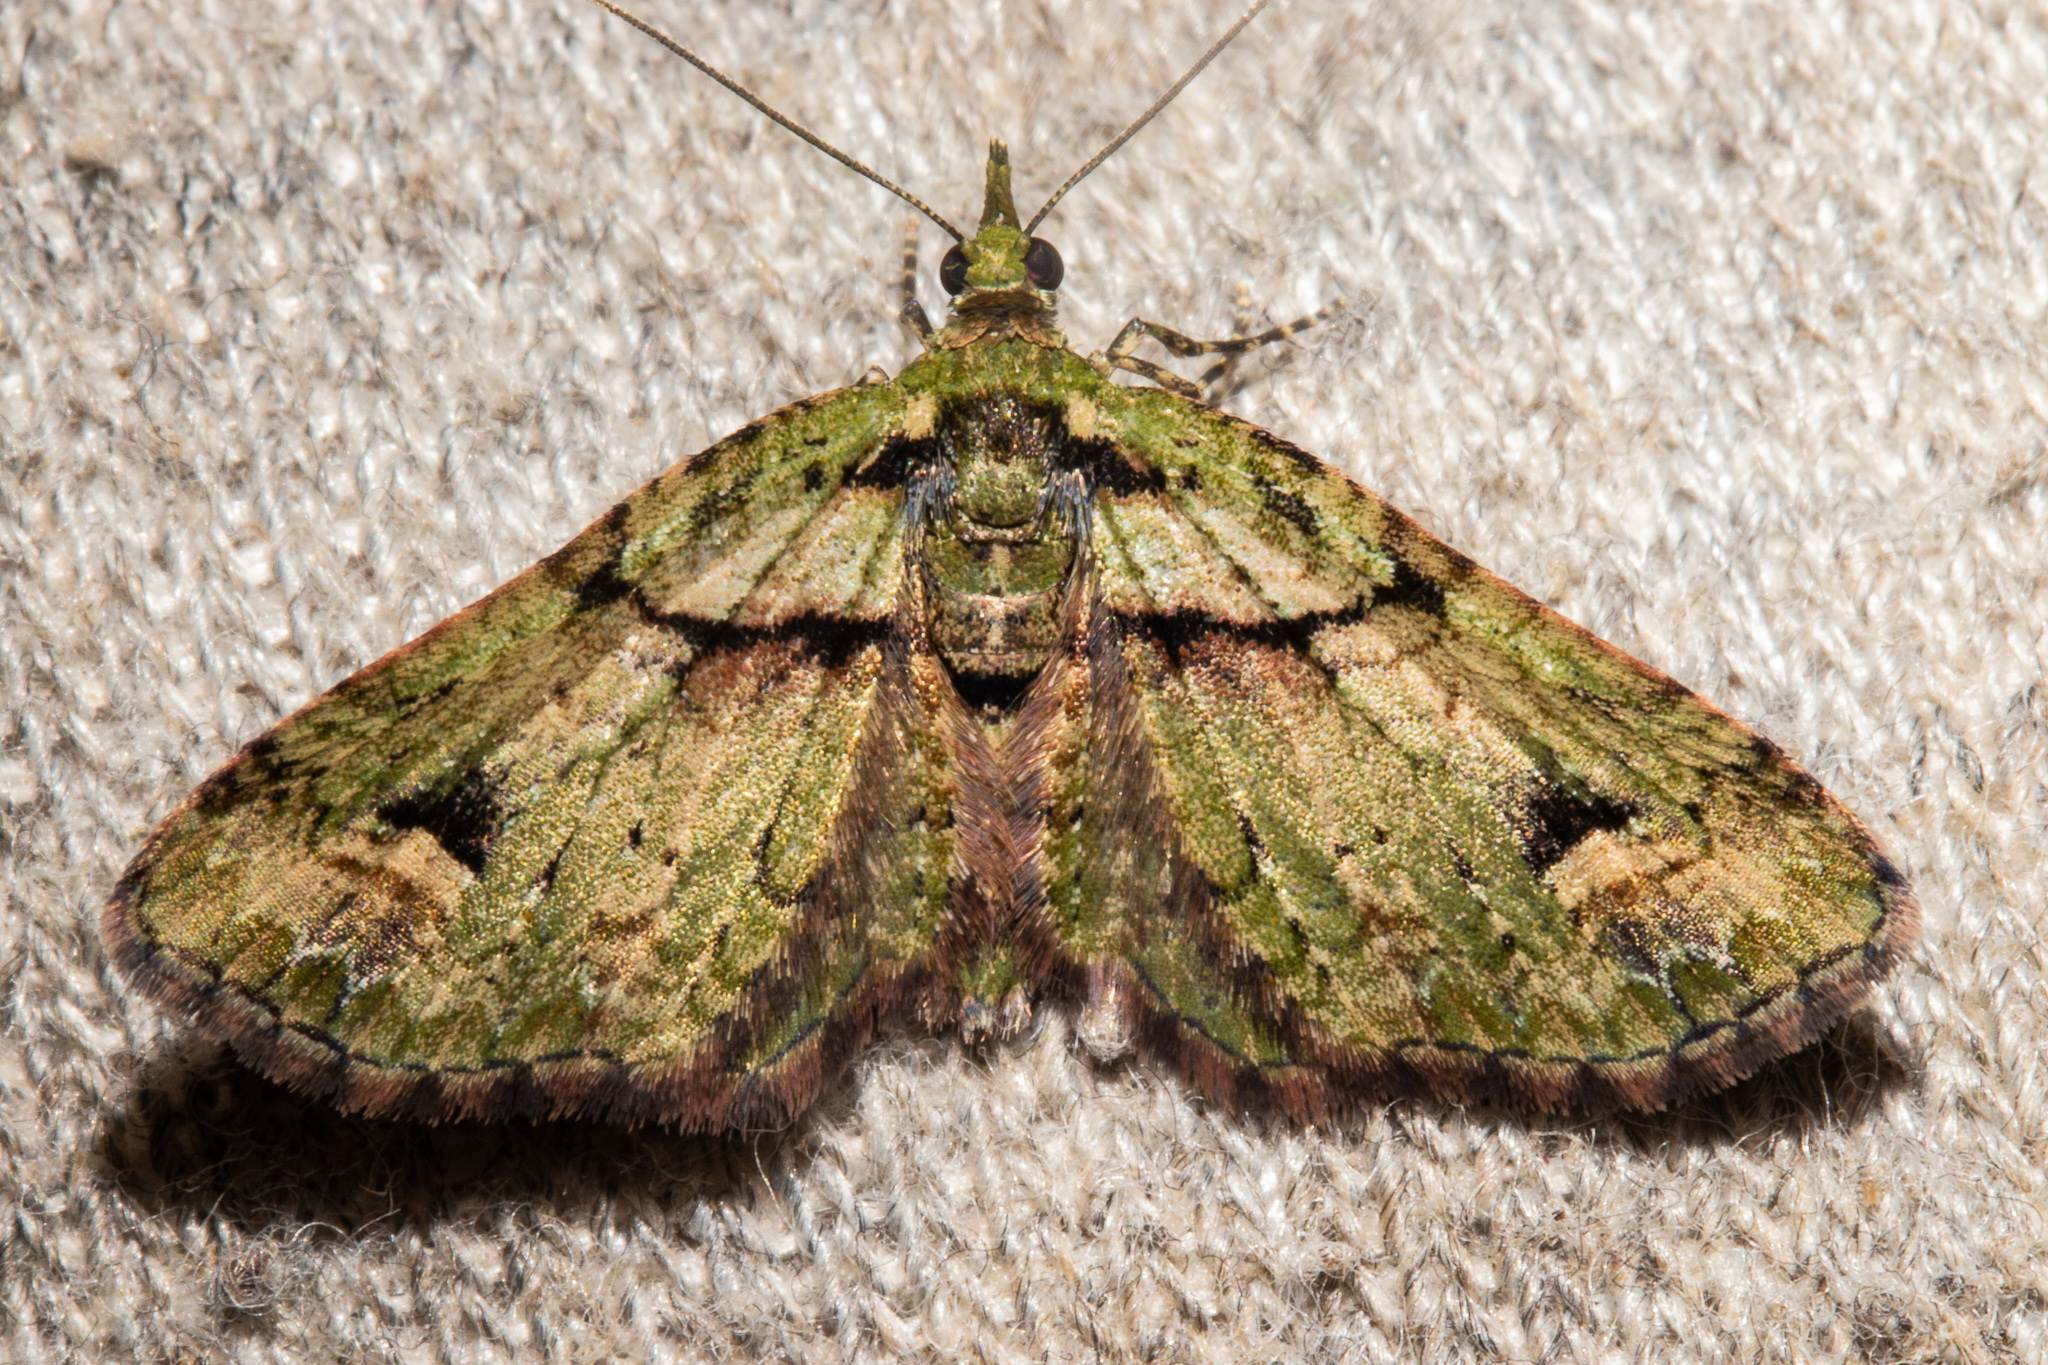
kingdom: Animalia
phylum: Arthropoda
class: Insecta
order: Lepidoptera
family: Geometridae
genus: Idaea
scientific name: Idaea mutanda
